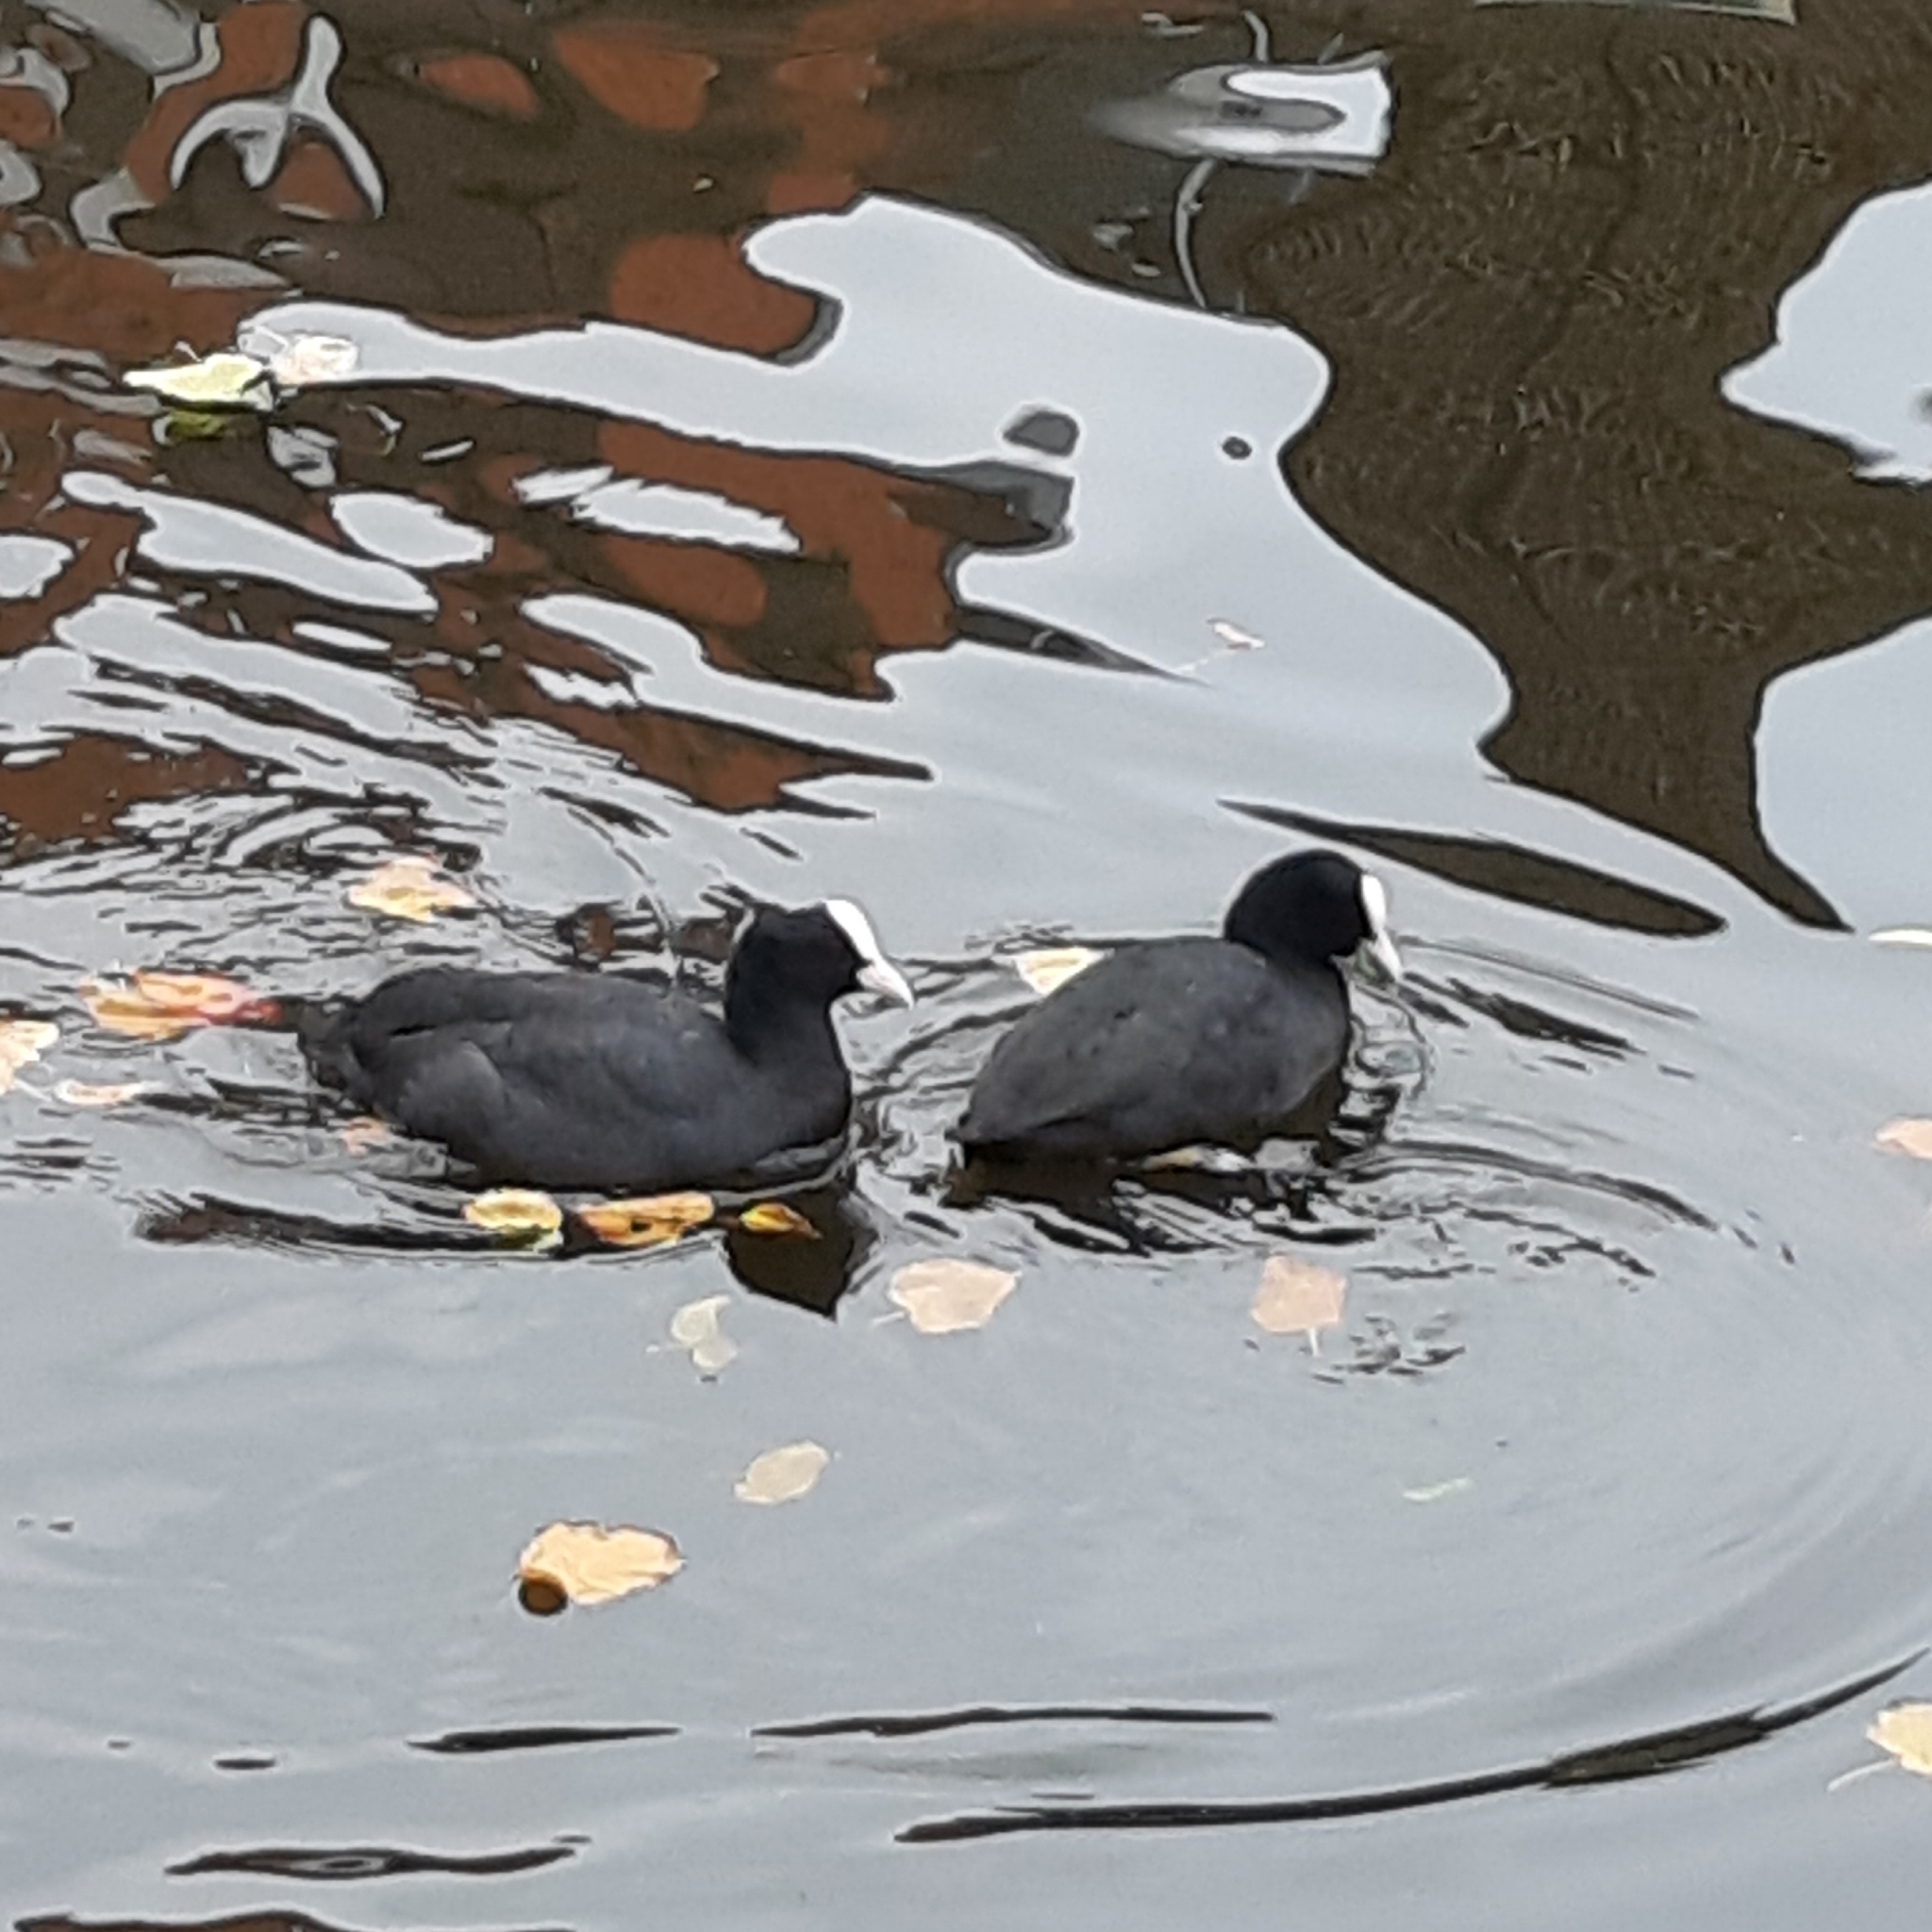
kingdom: Animalia
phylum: Chordata
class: Aves
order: Gruiformes
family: Rallidae
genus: Fulica
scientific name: Fulica atra
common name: Eurasian coot
